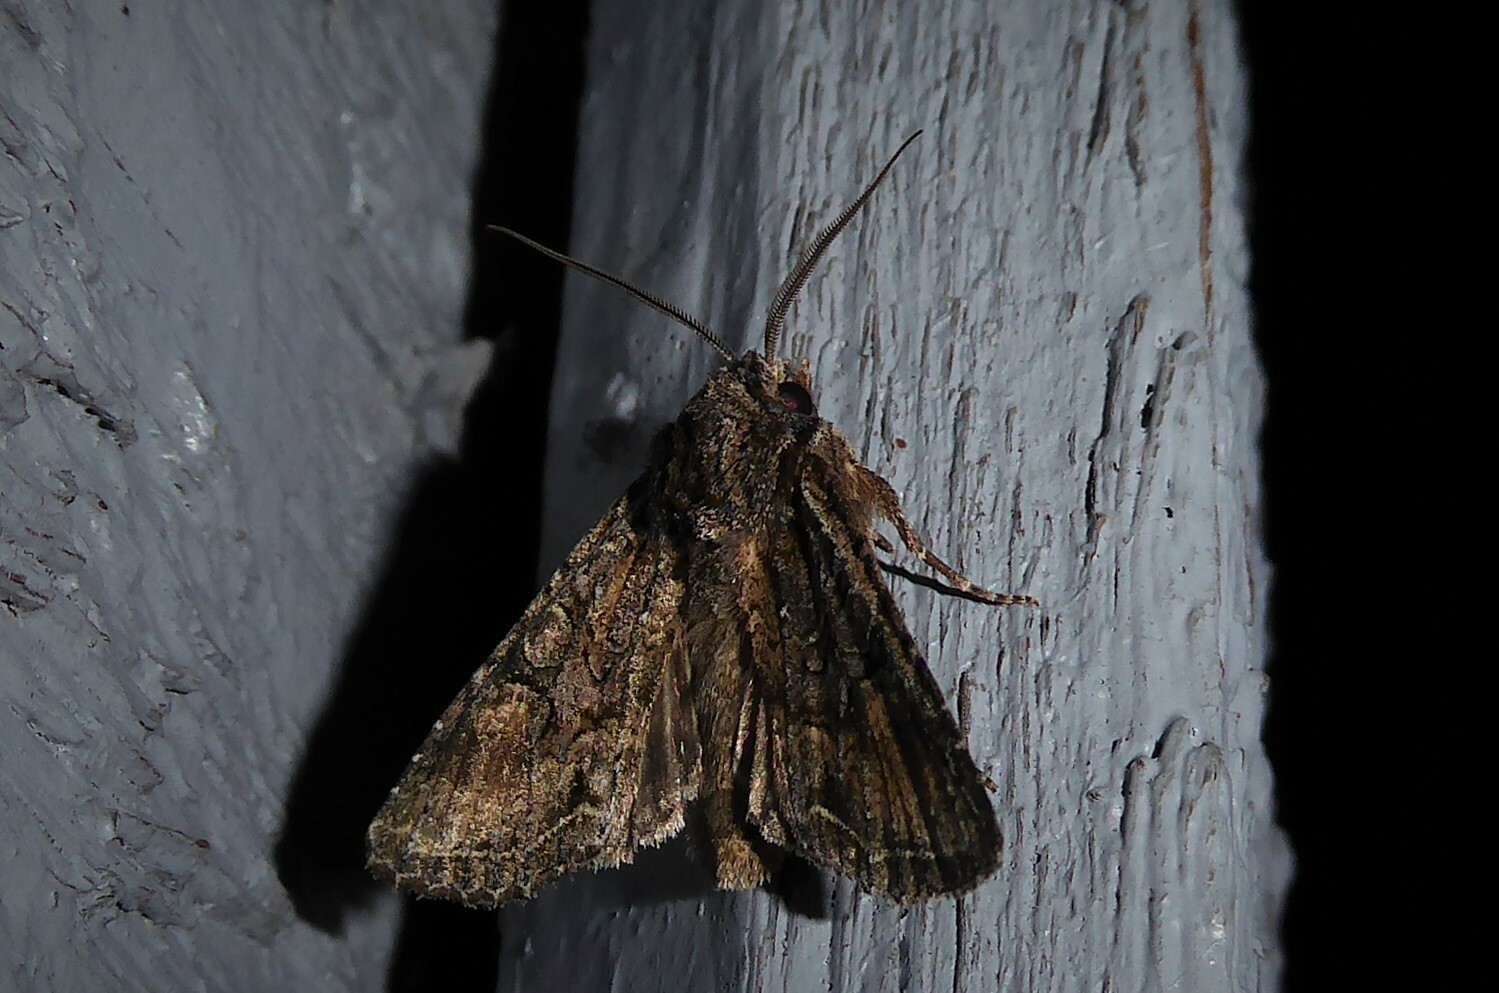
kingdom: Animalia
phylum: Arthropoda
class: Insecta
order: Lepidoptera
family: Noctuidae
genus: Ichneutica
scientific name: Ichneutica mutans
